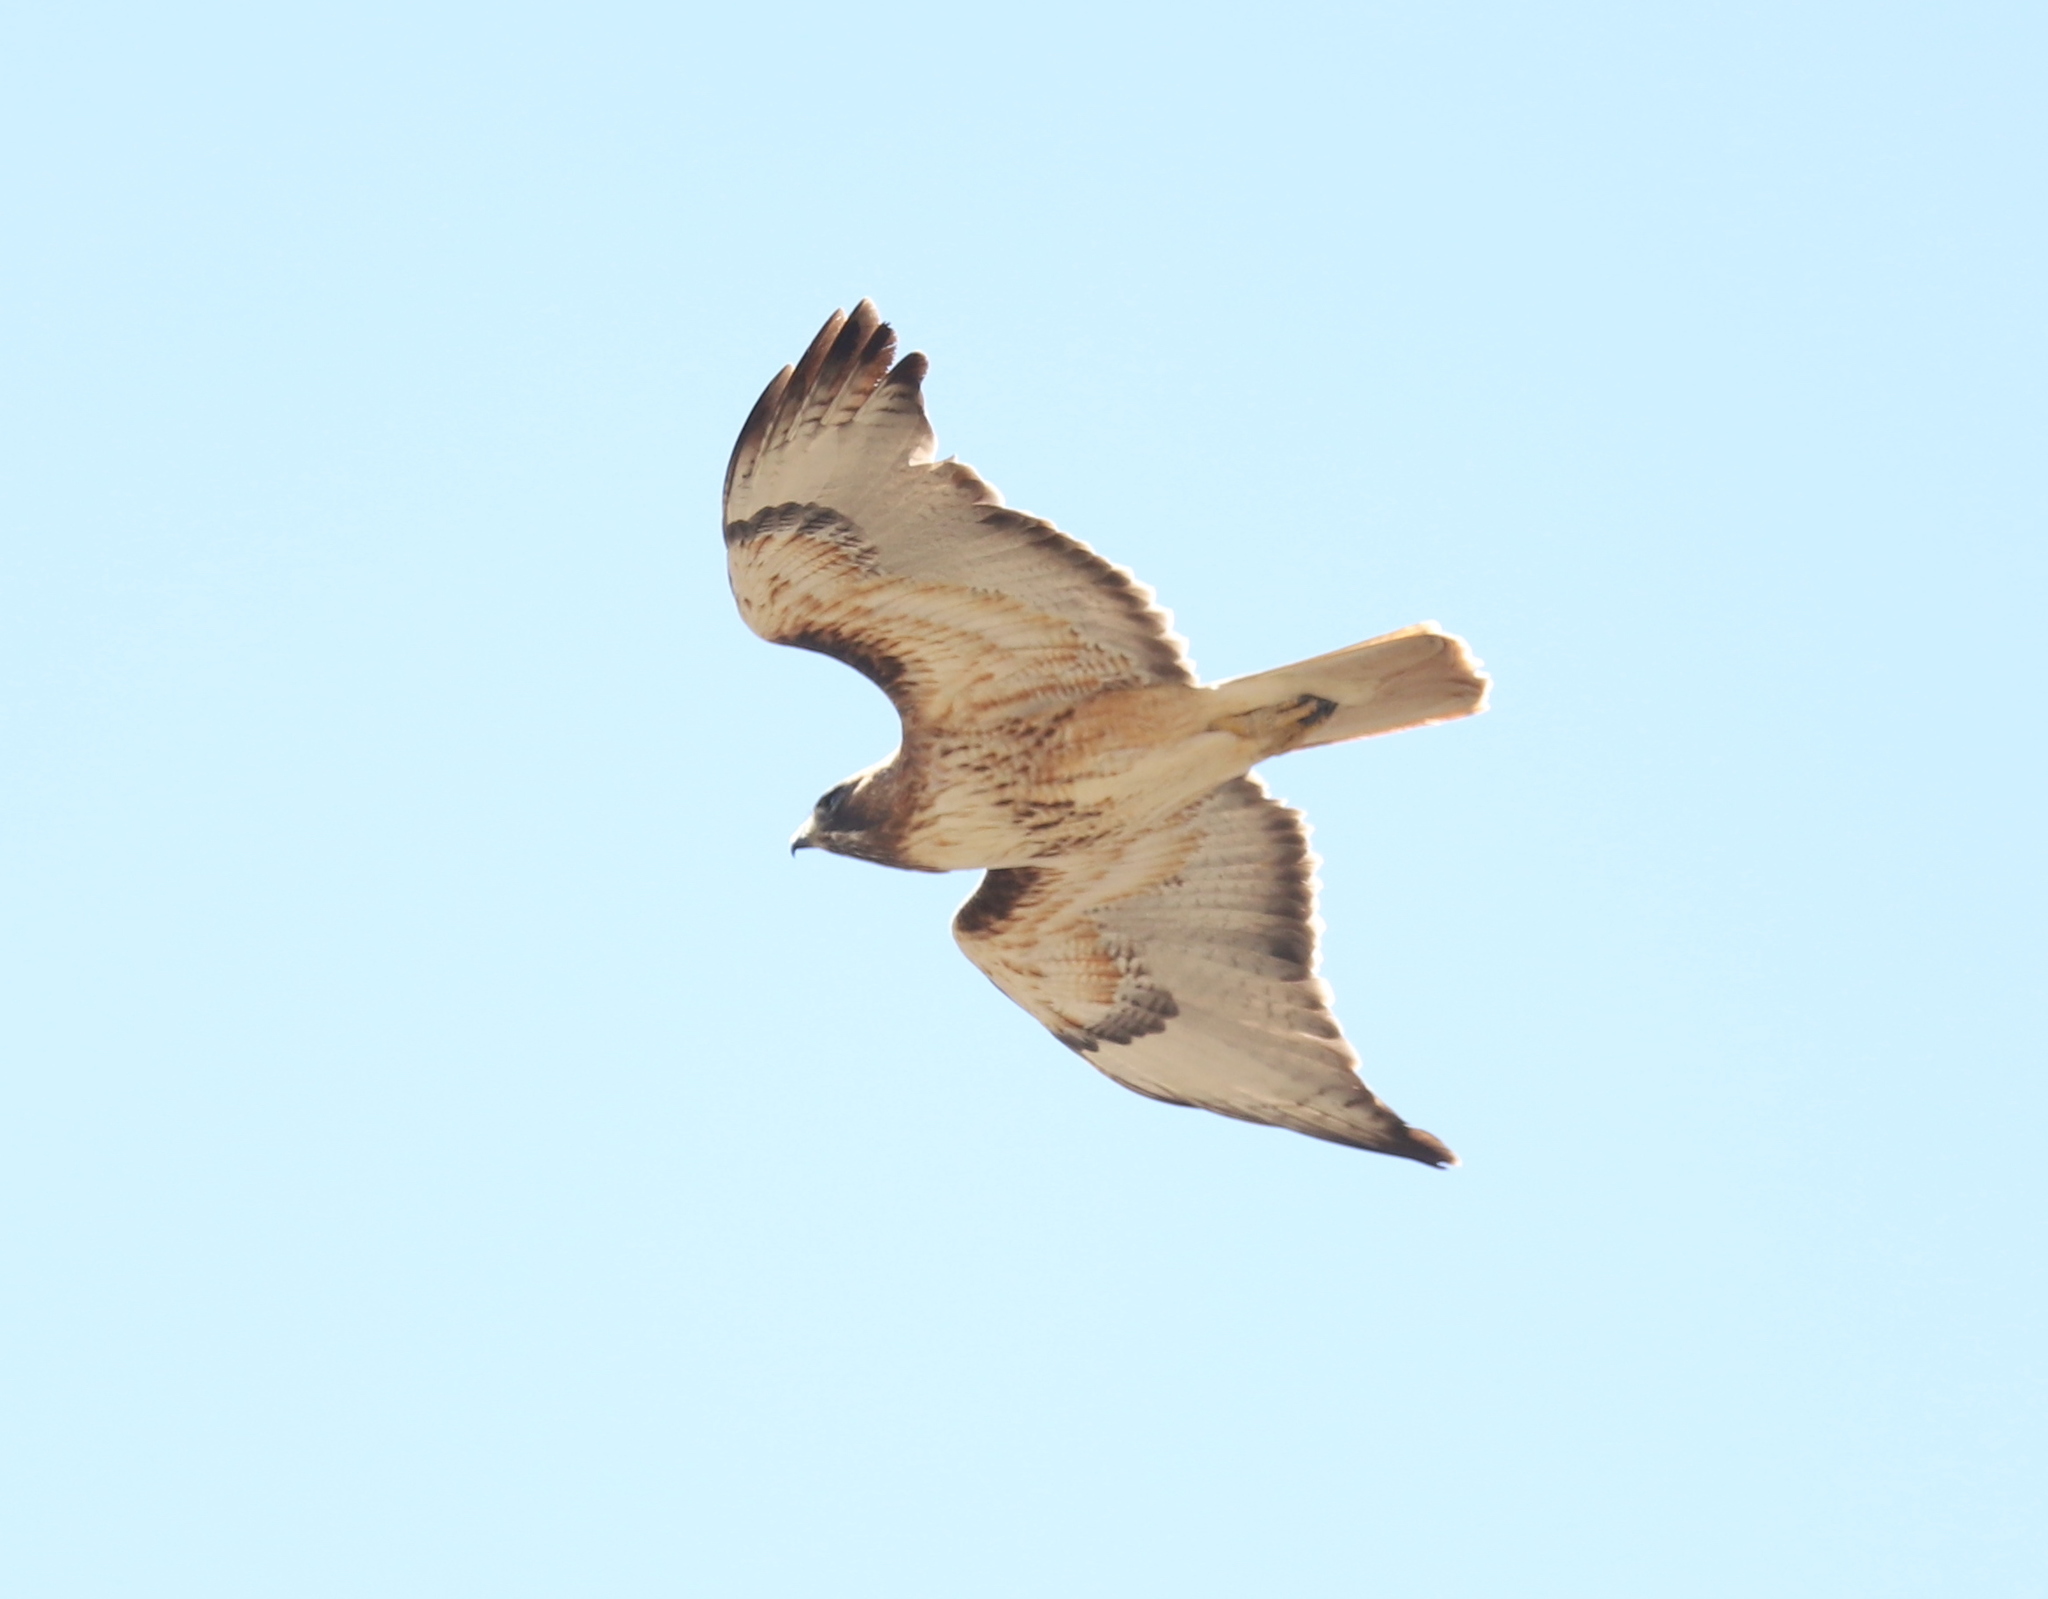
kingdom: Animalia
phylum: Chordata
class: Aves
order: Accipitriformes
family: Accipitridae
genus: Buteo
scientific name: Buteo jamaicensis
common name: Red-tailed hawk
